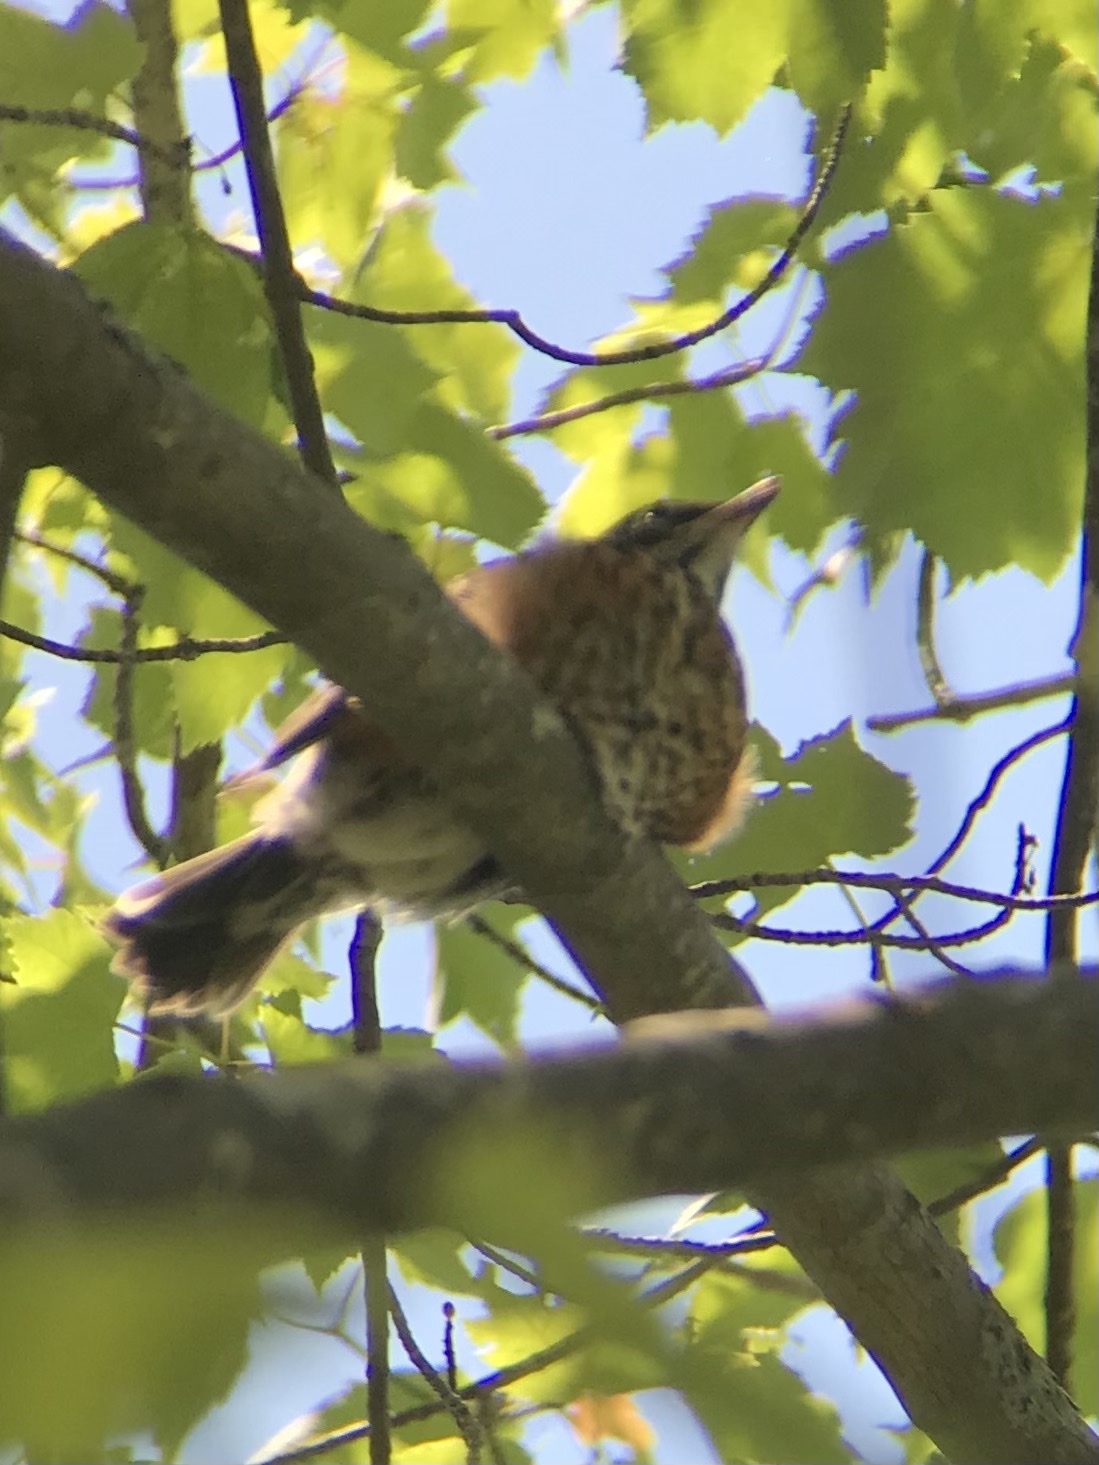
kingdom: Animalia
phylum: Chordata
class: Aves
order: Passeriformes
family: Turdidae
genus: Turdus
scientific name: Turdus migratorius
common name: American robin
